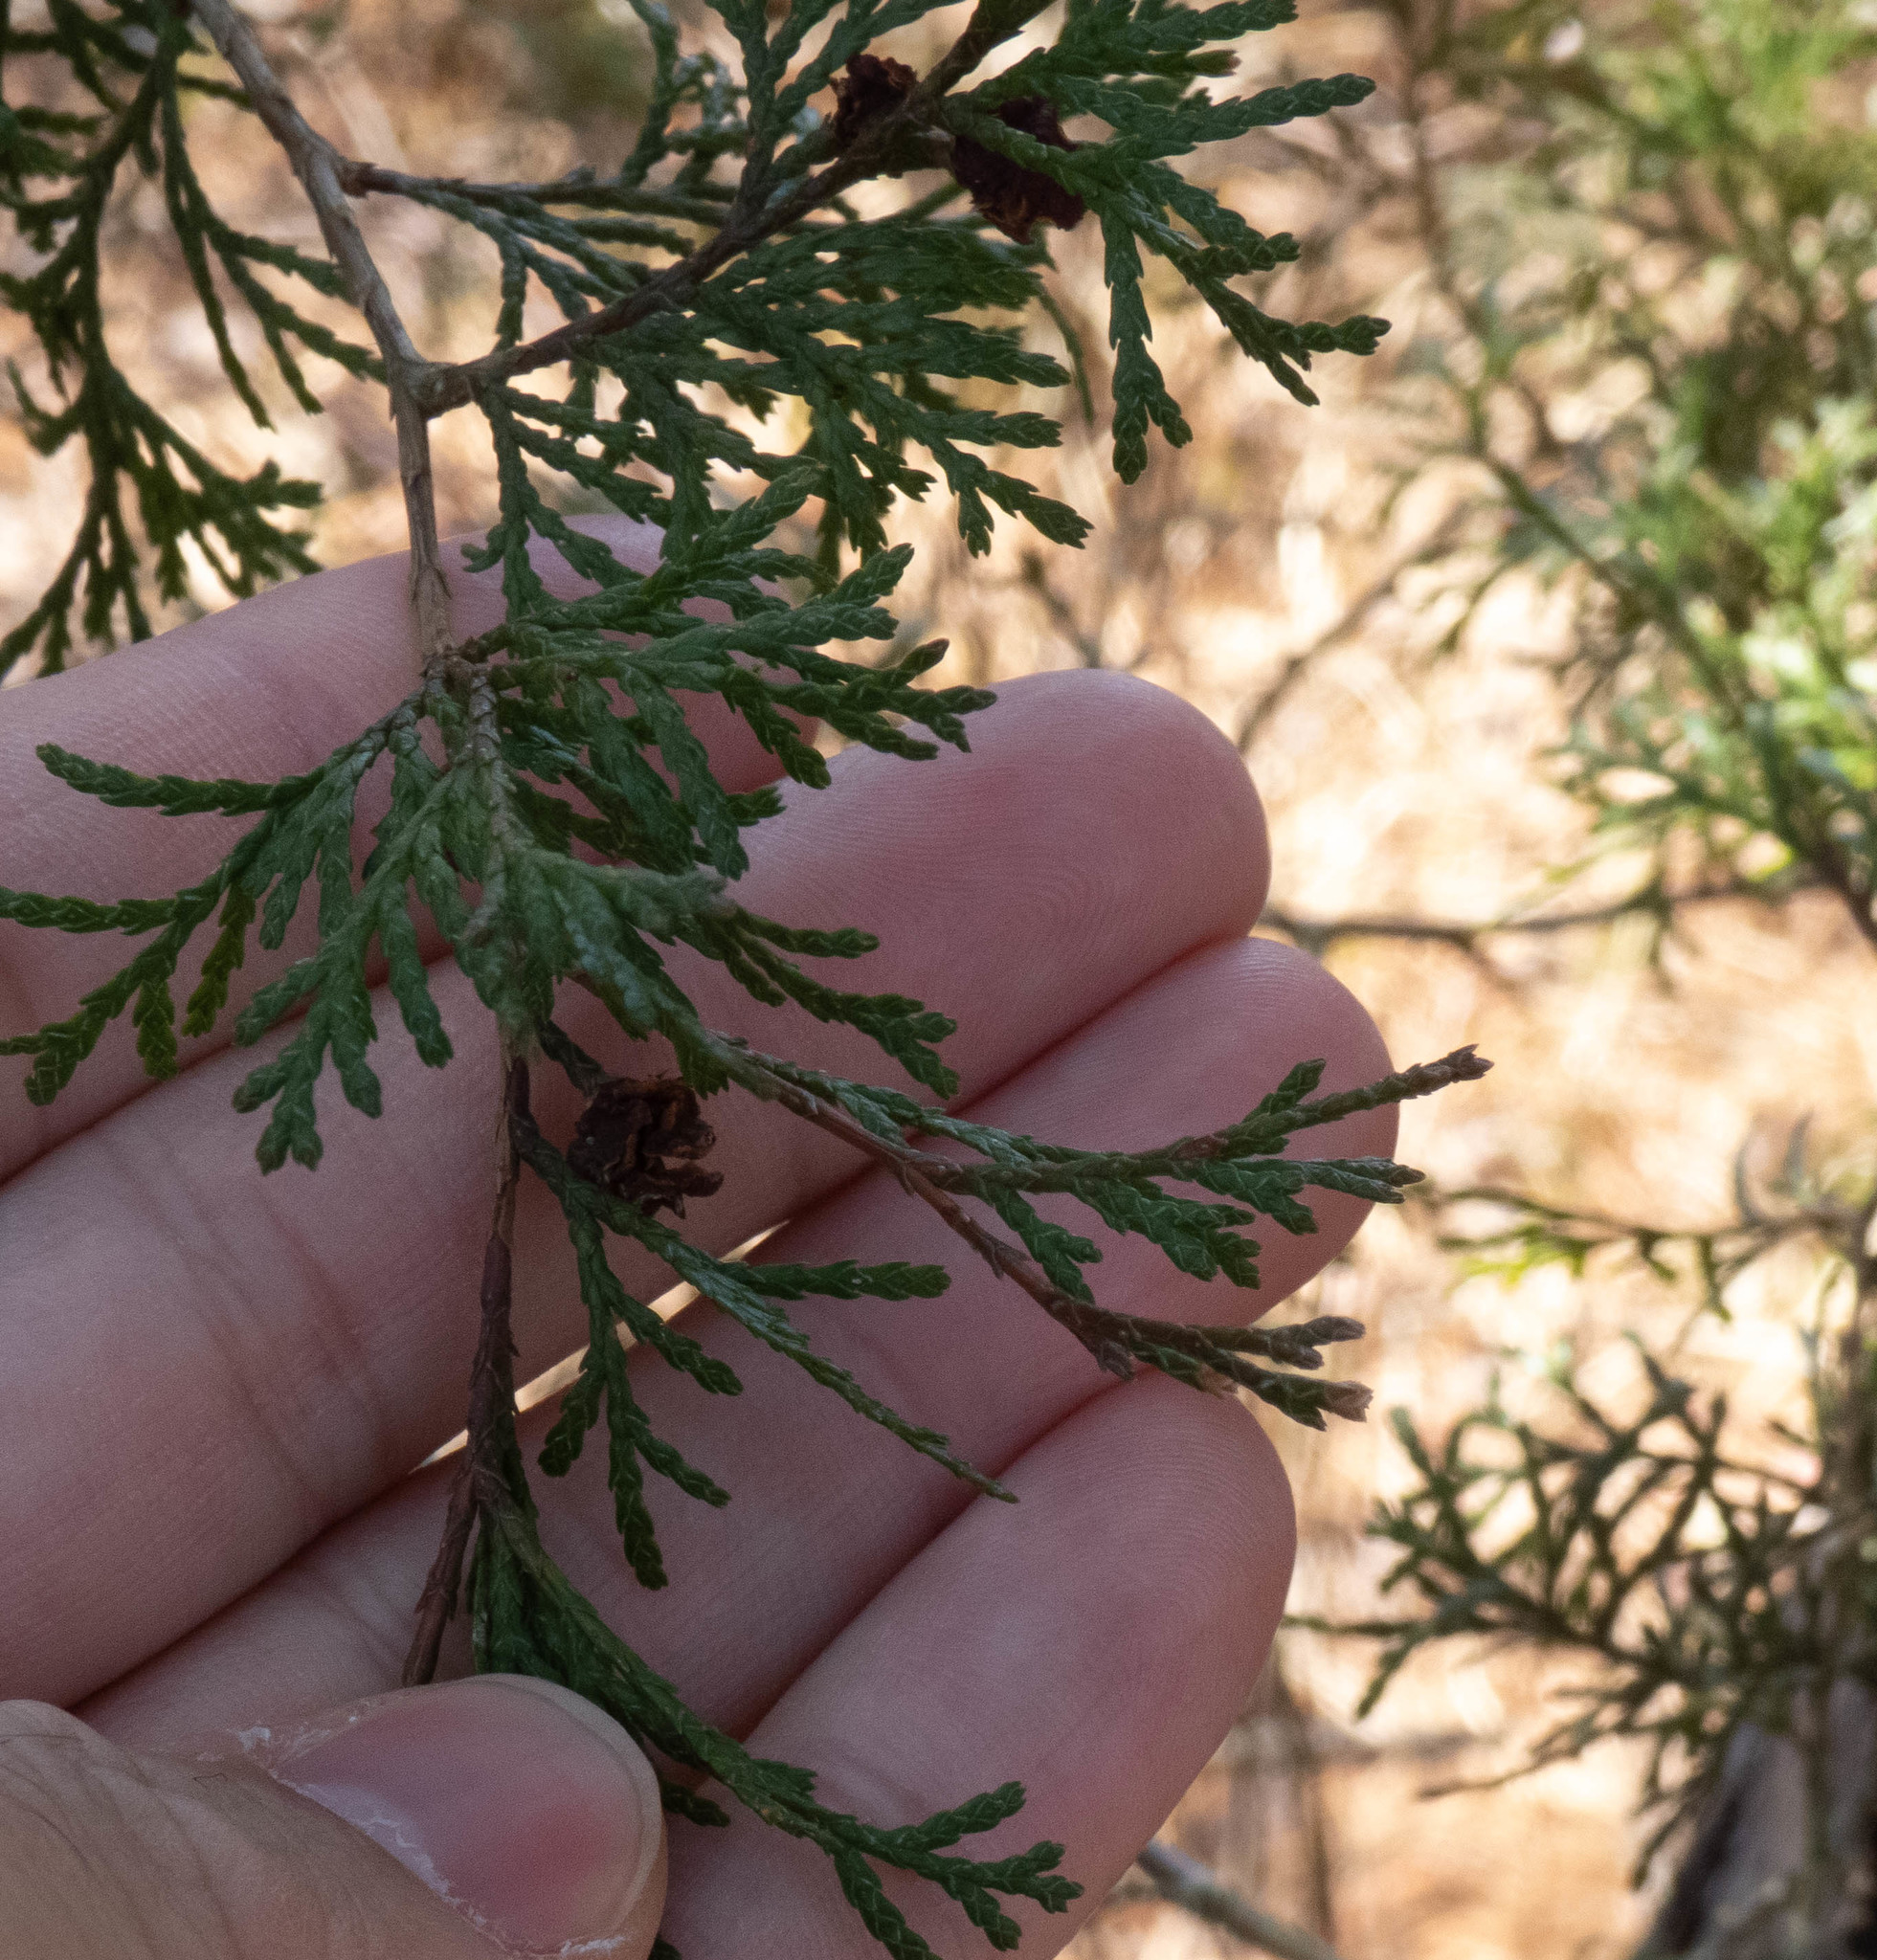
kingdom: Plantae
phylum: Tracheophyta
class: Pinopsida
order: Pinales
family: Cupressaceae
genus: Chamaecyparis
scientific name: Chamaecyparis thyoides
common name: Atlantic white cedar
